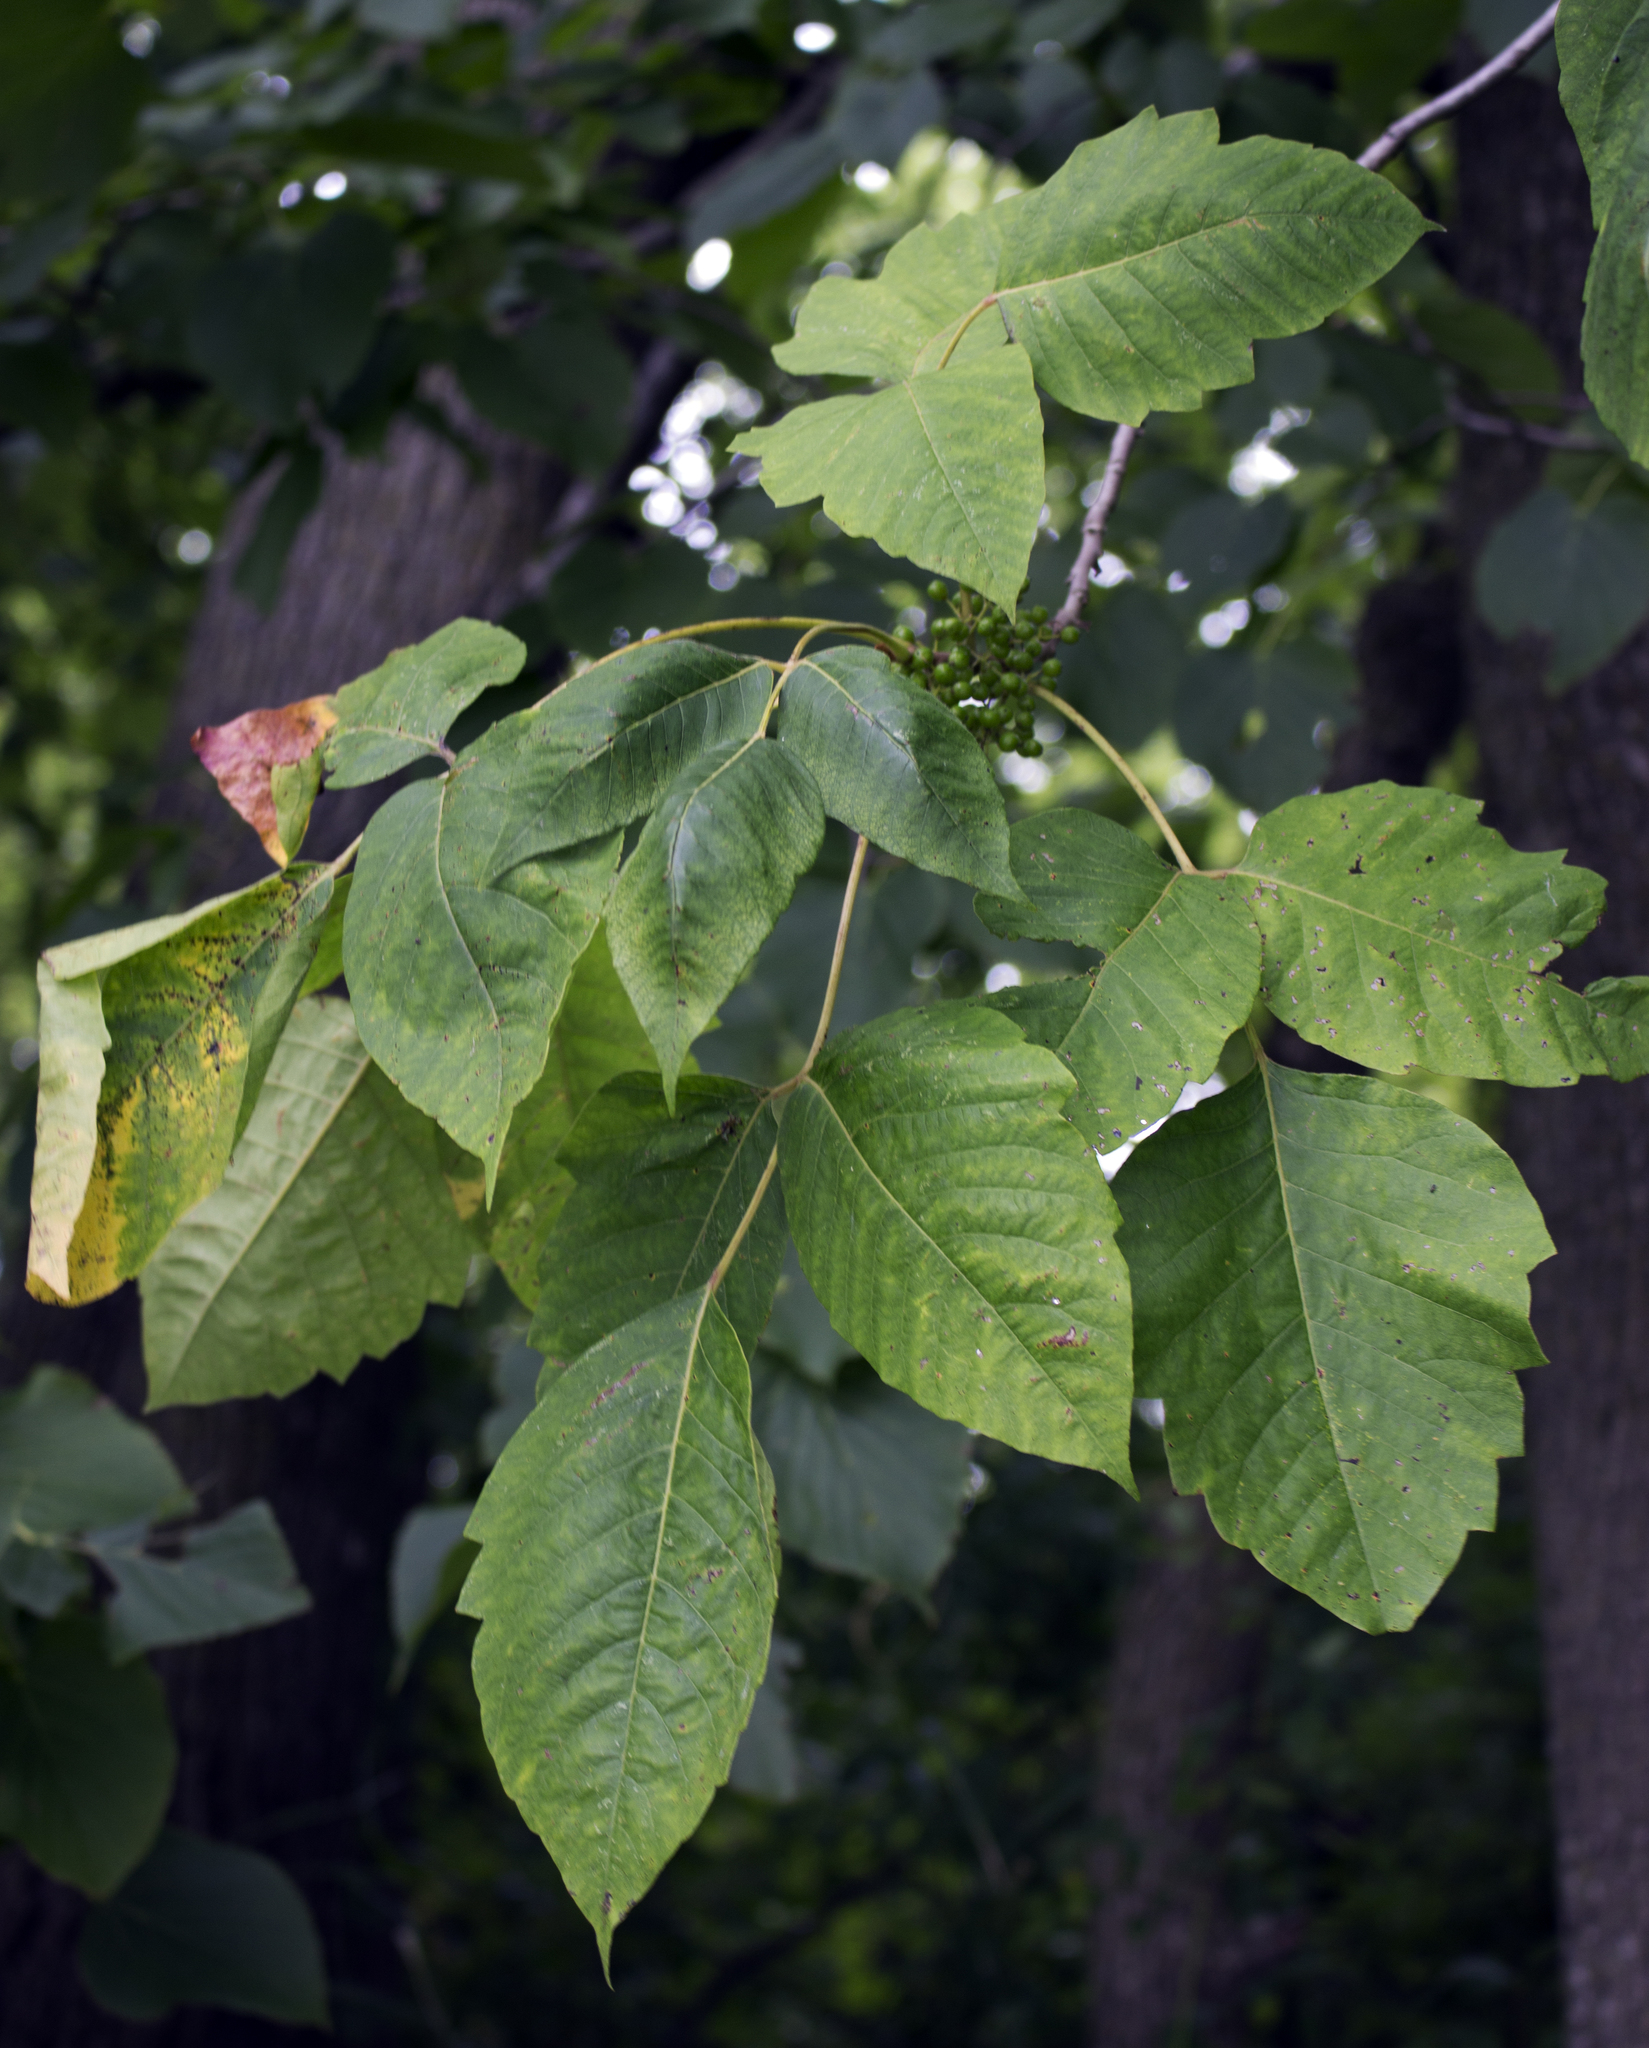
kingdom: Plantae
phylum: Tracheophyta
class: Magnoliopsida
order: Sapindales
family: Anacardiaceae
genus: Toxicodendron
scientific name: Toxicodendron radicans
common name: Poison ivy
